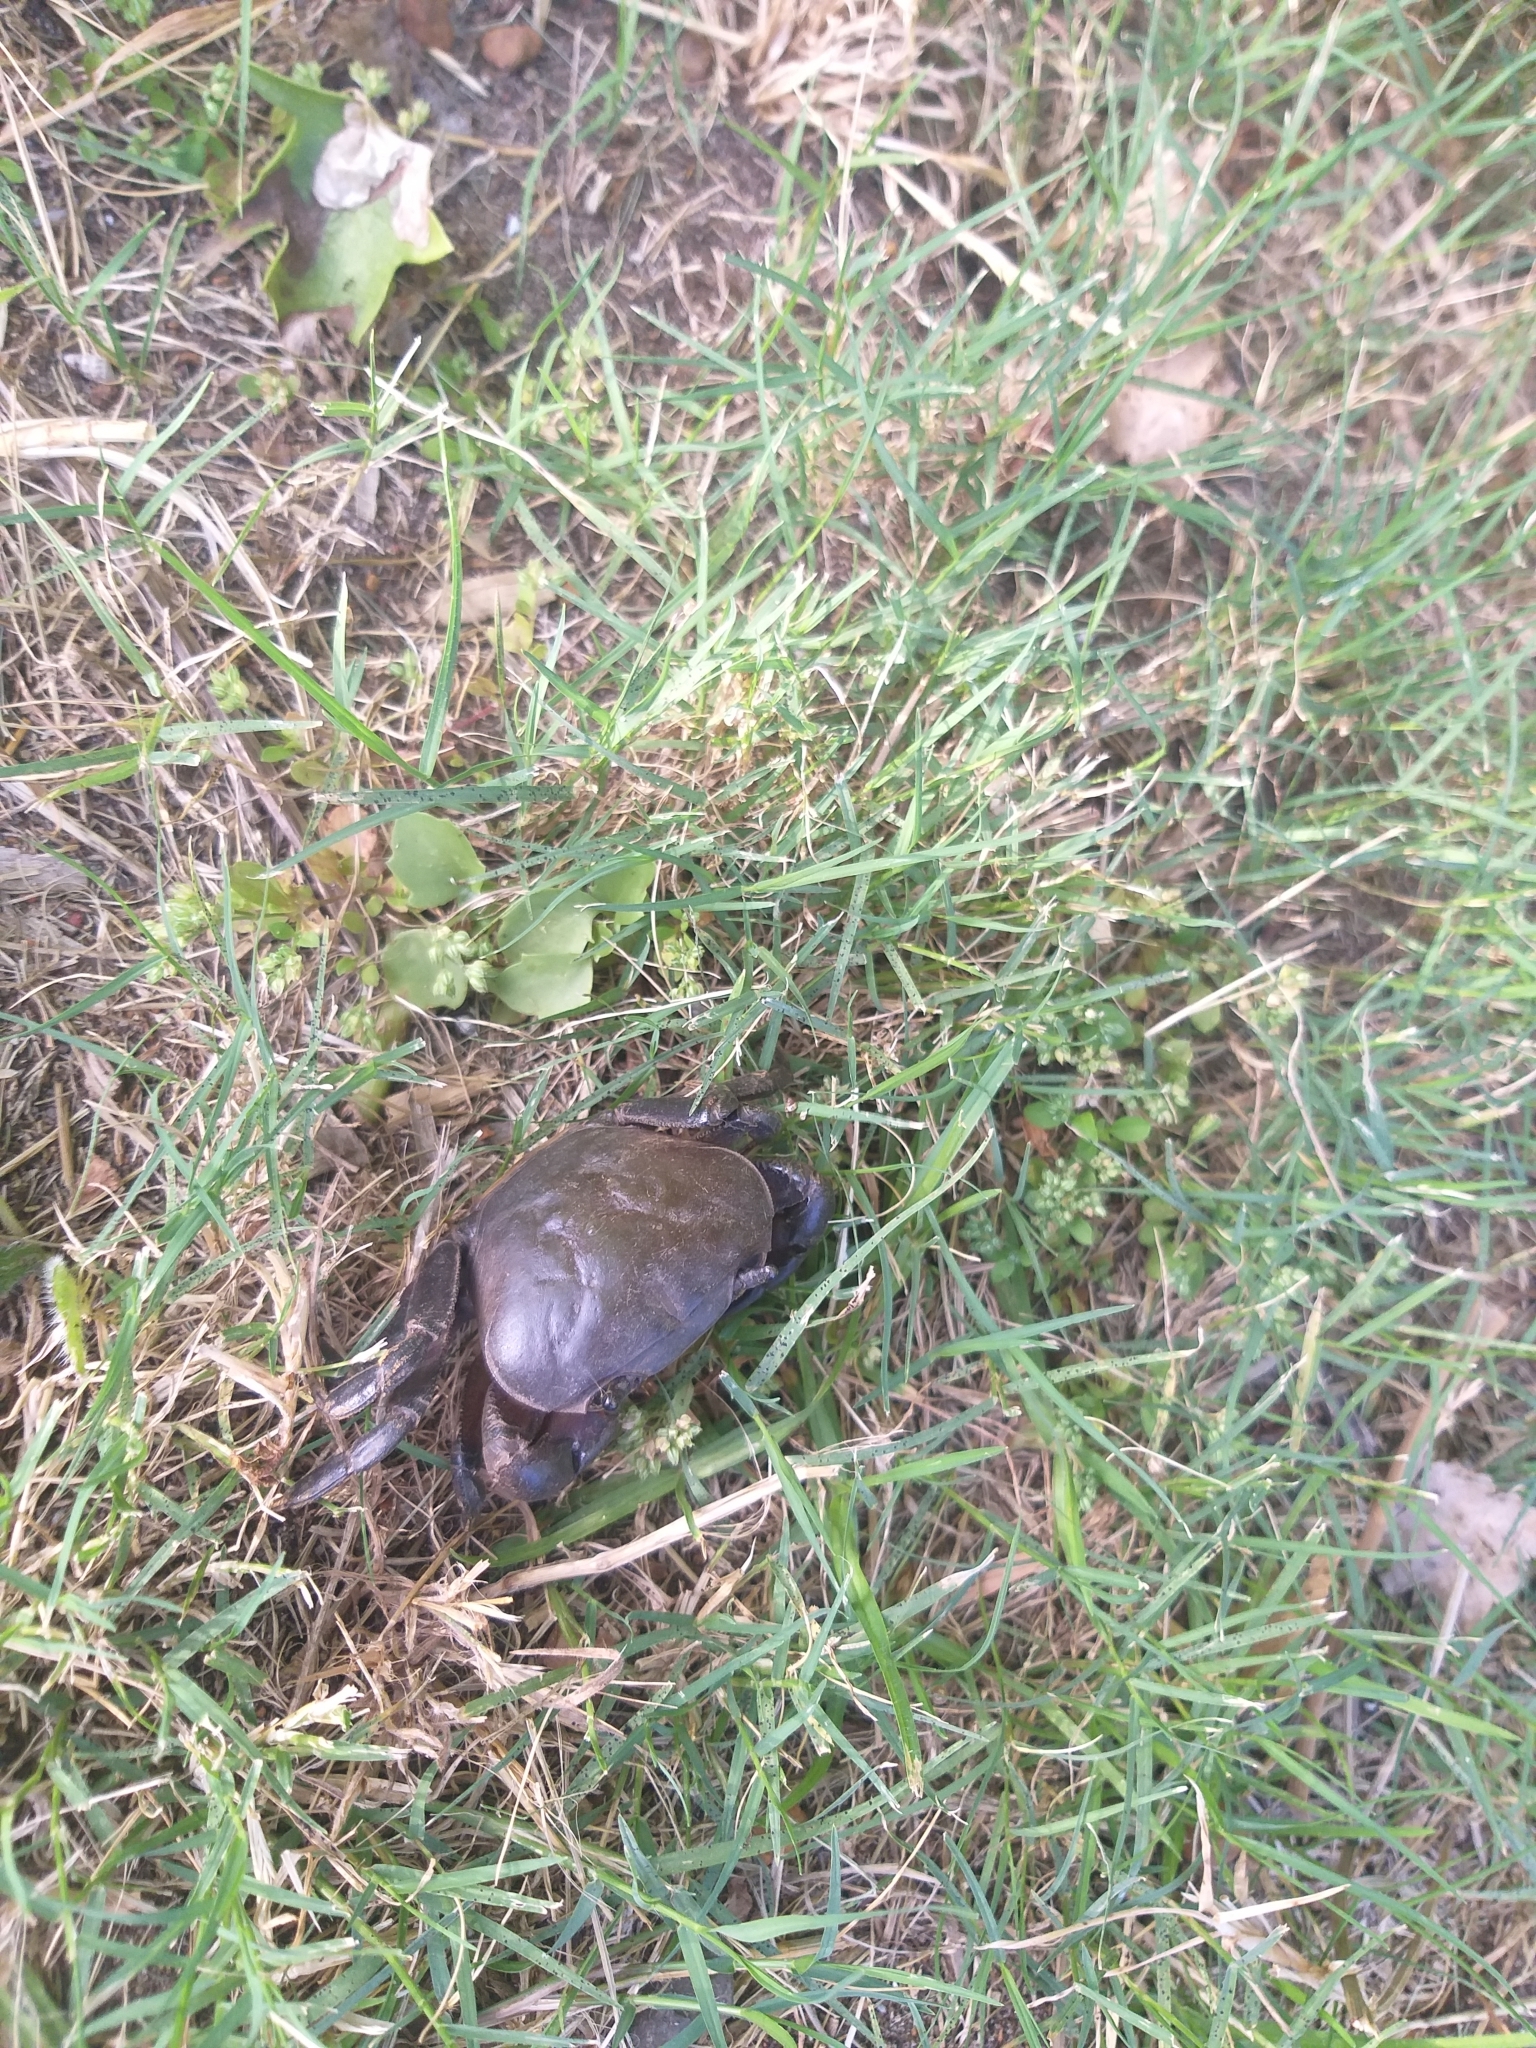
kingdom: Animalia
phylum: Arthropoda
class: Malacostraca
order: Decapoda
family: Potamonautidae
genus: Potamonautes
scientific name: Potamonautes perlatus
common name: Cape river crab
